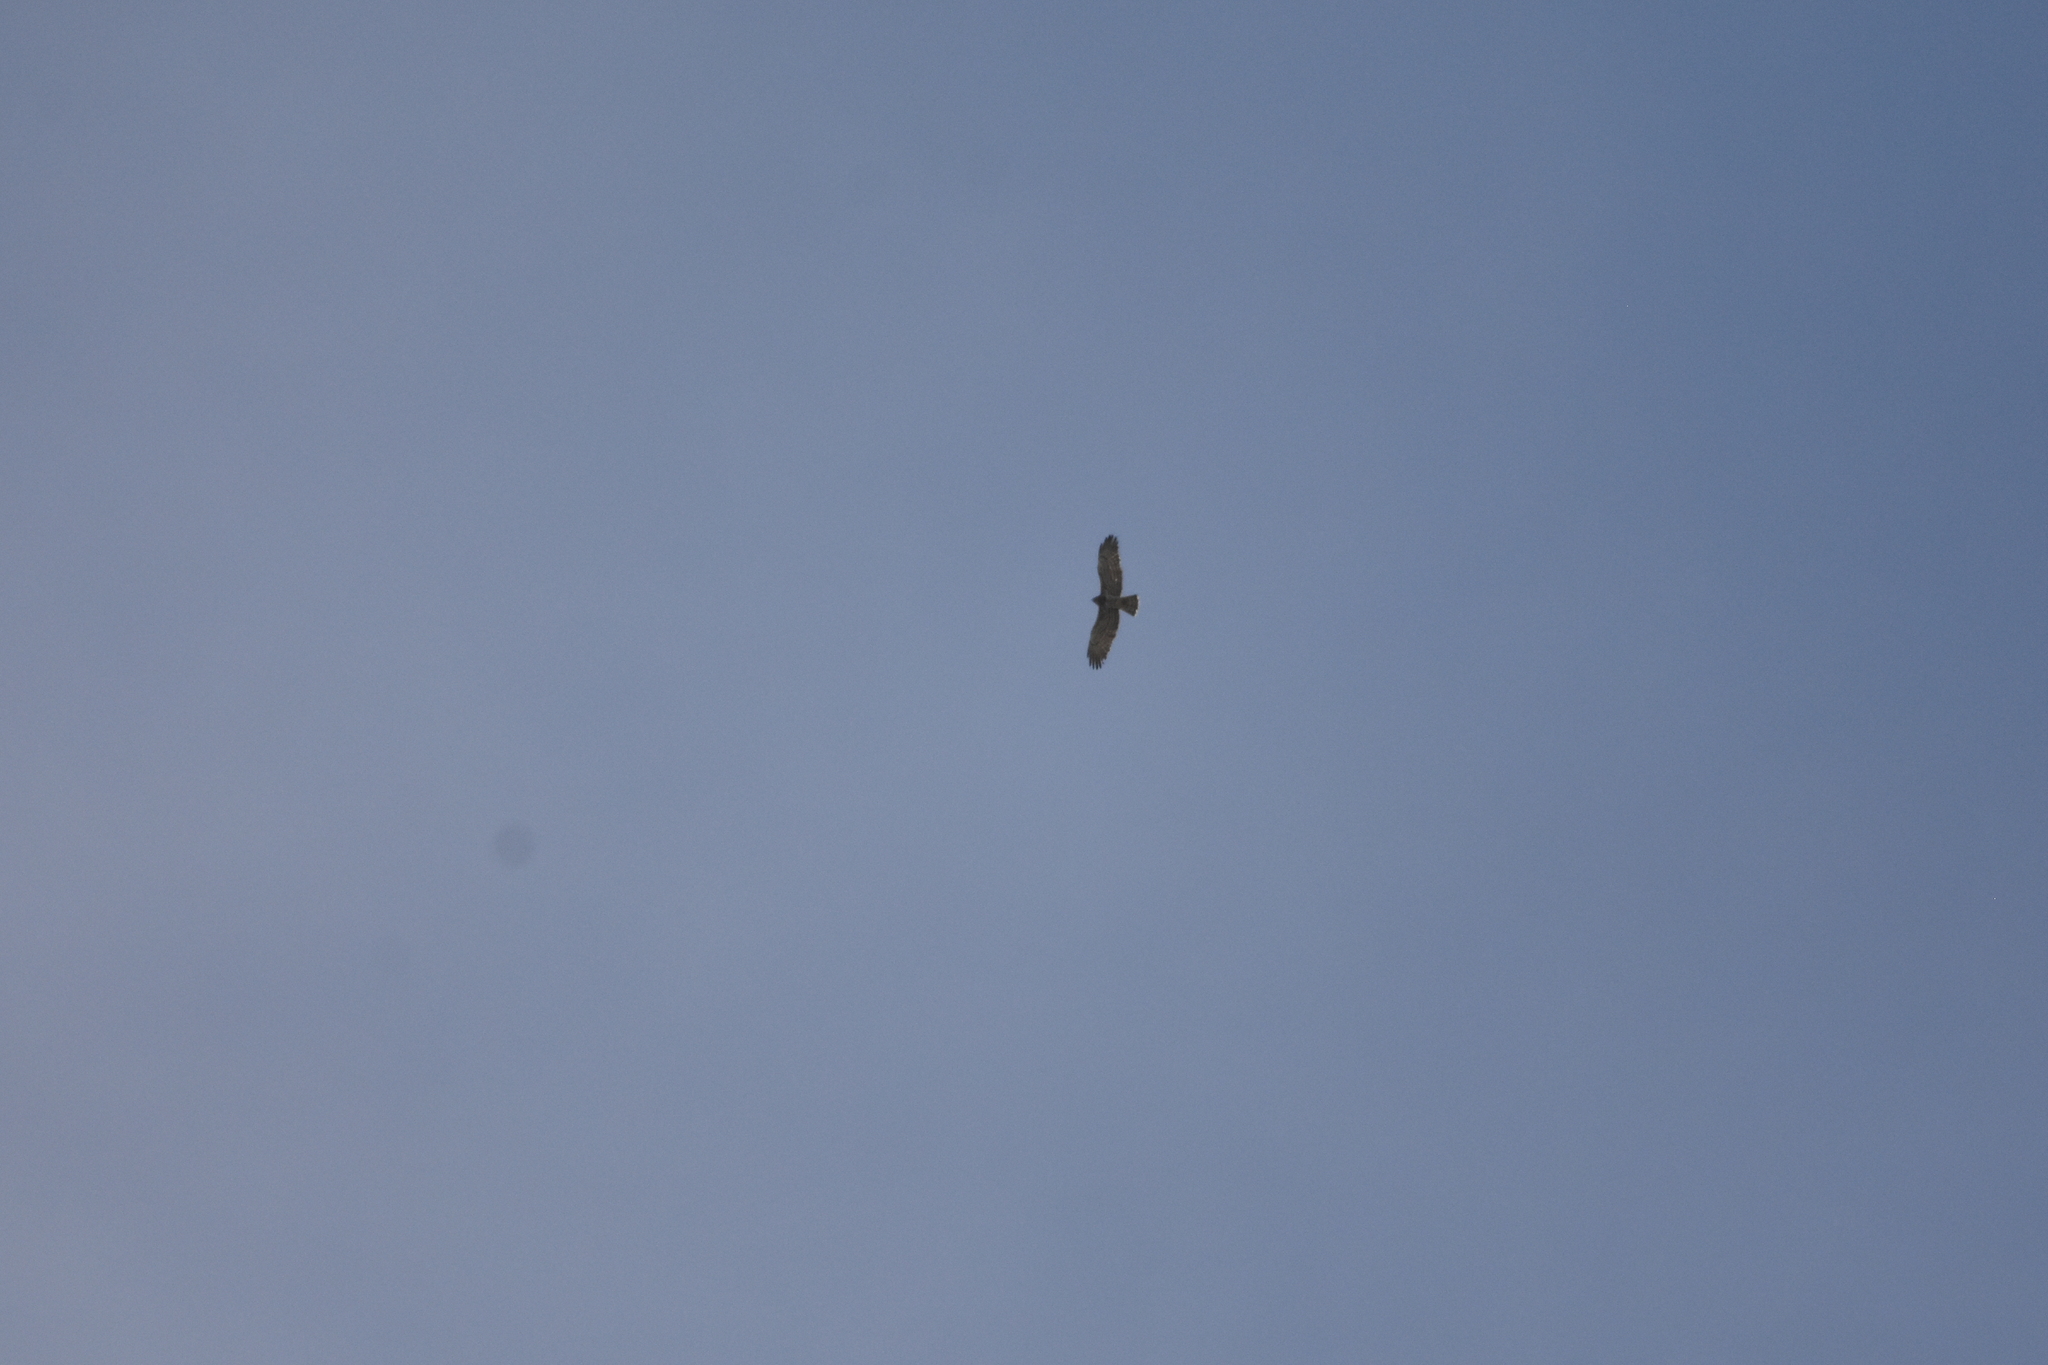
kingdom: Animalia
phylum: Chordata
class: Aves
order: Accipitriformes
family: Accipitridae
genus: Circaetus
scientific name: Circaetus gallicus
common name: Short-toed snake eagle
